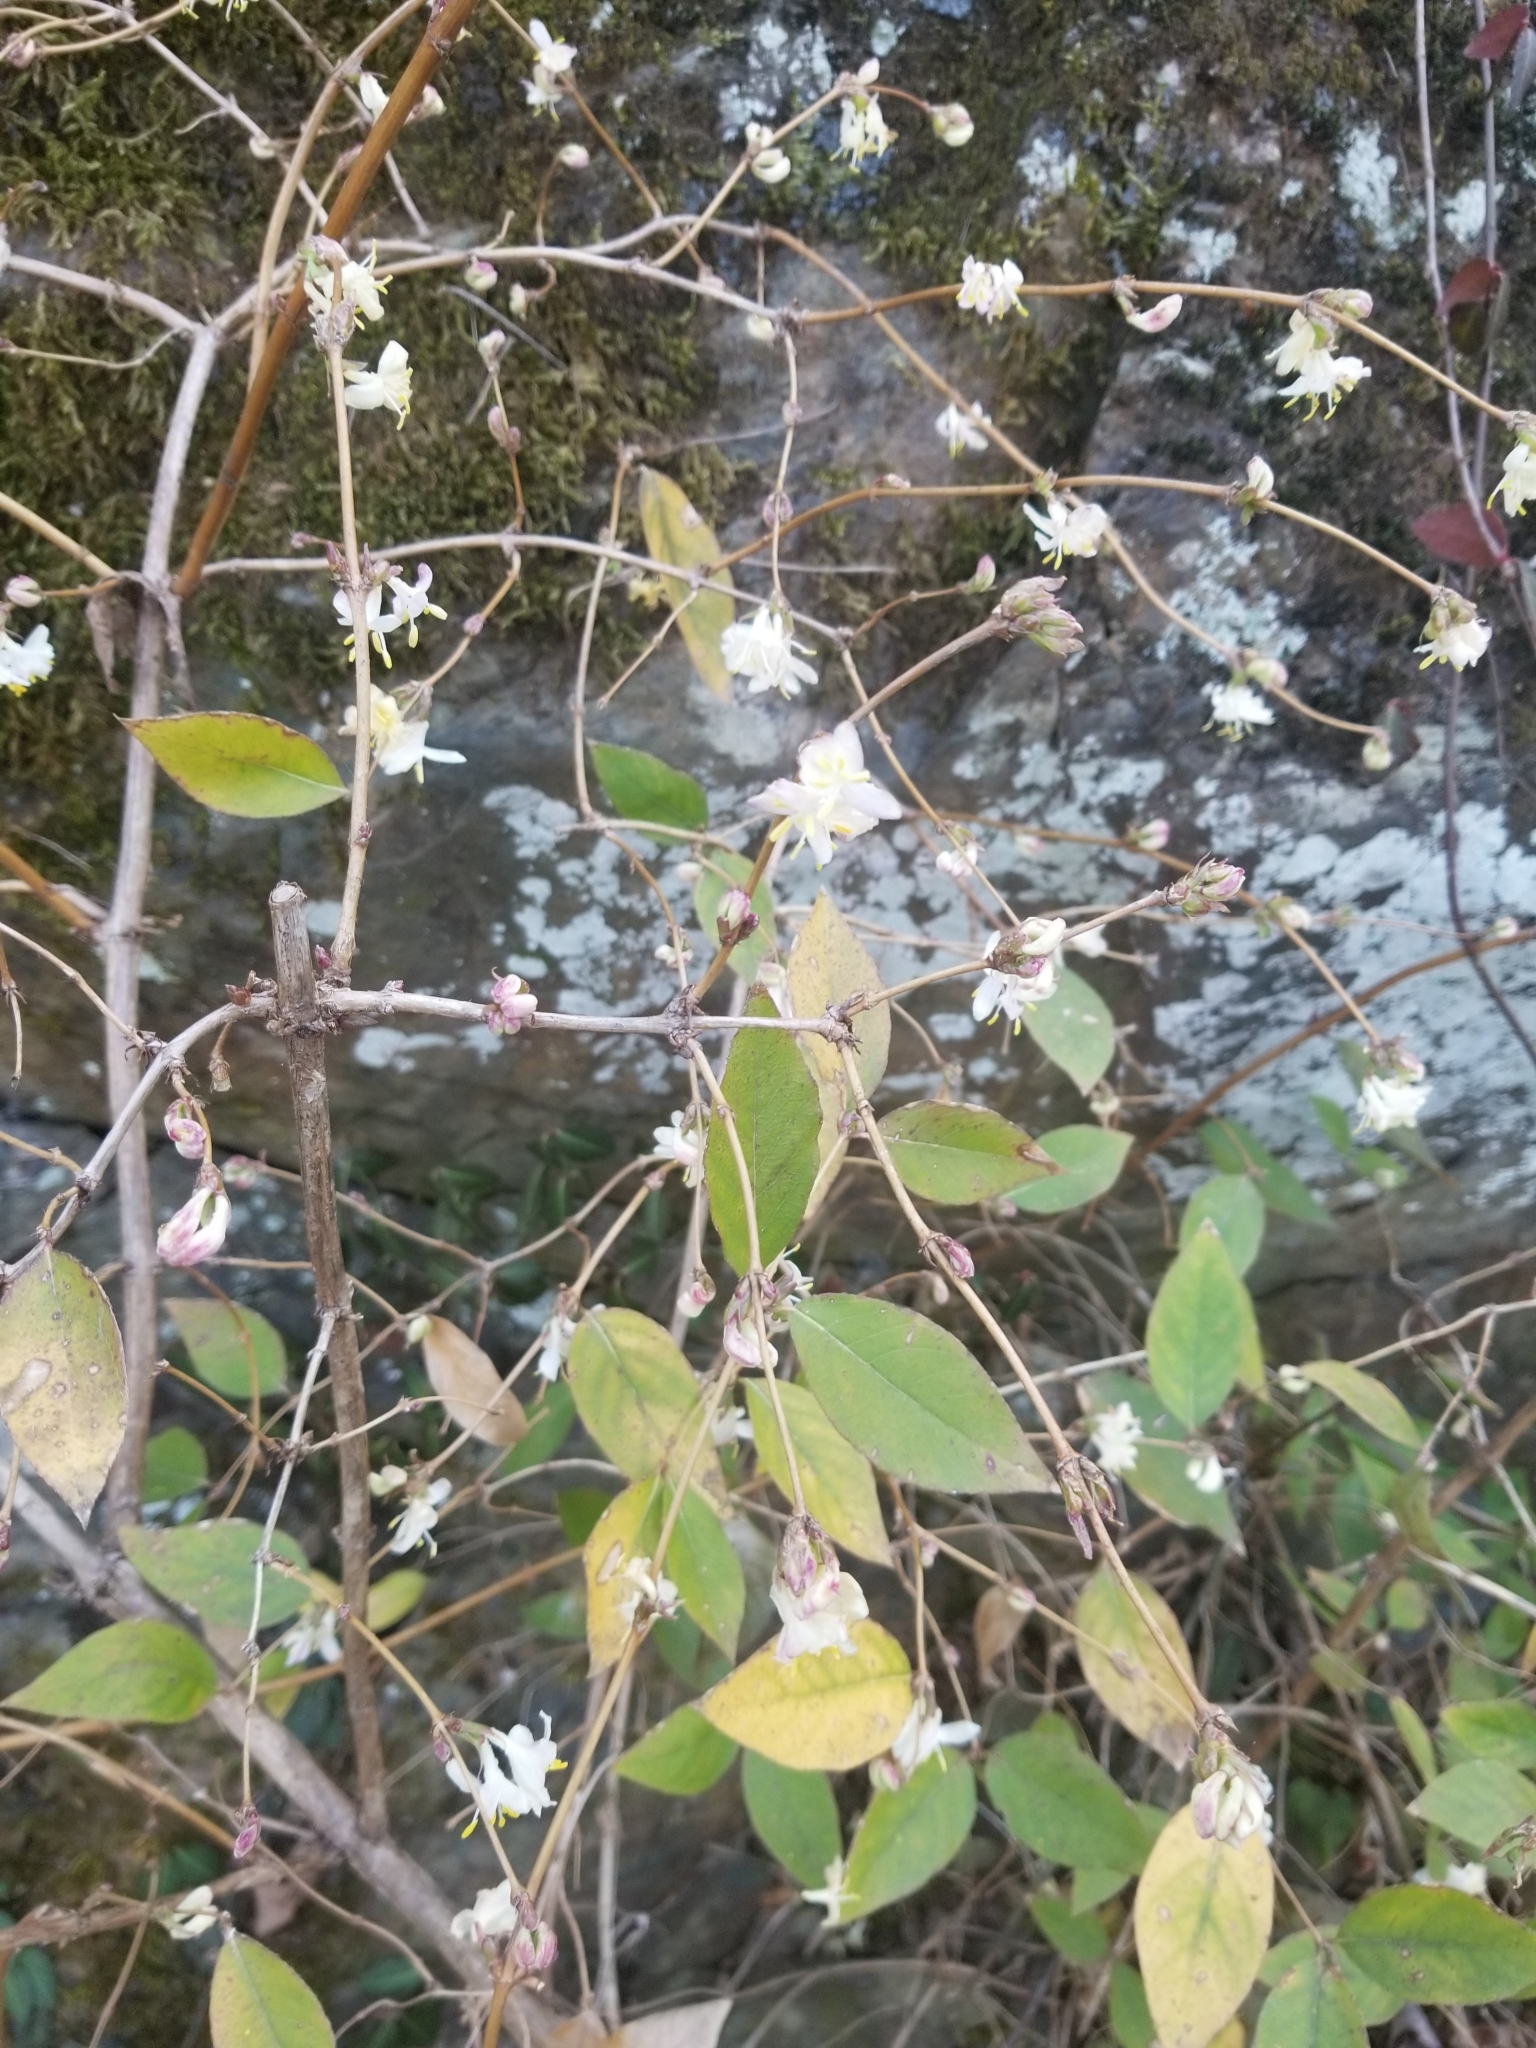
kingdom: Plantae
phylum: Tracheophyta
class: Magnoliopsida
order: Dipsacales
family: Caprifoliaceae
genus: Lonicera
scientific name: Lonicera fragrantissima
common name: Fragrant honeysuckle
